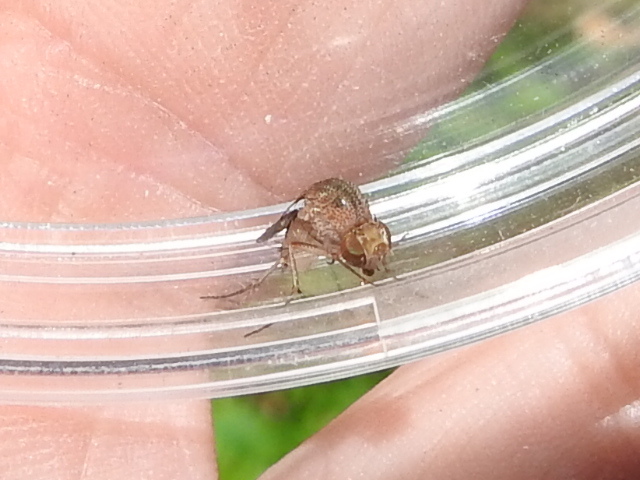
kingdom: Animalia
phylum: Arthropoda
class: Insecta
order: Diptera
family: Curtonotidae
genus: Curtonotum
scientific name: Curtonotum prolixum
